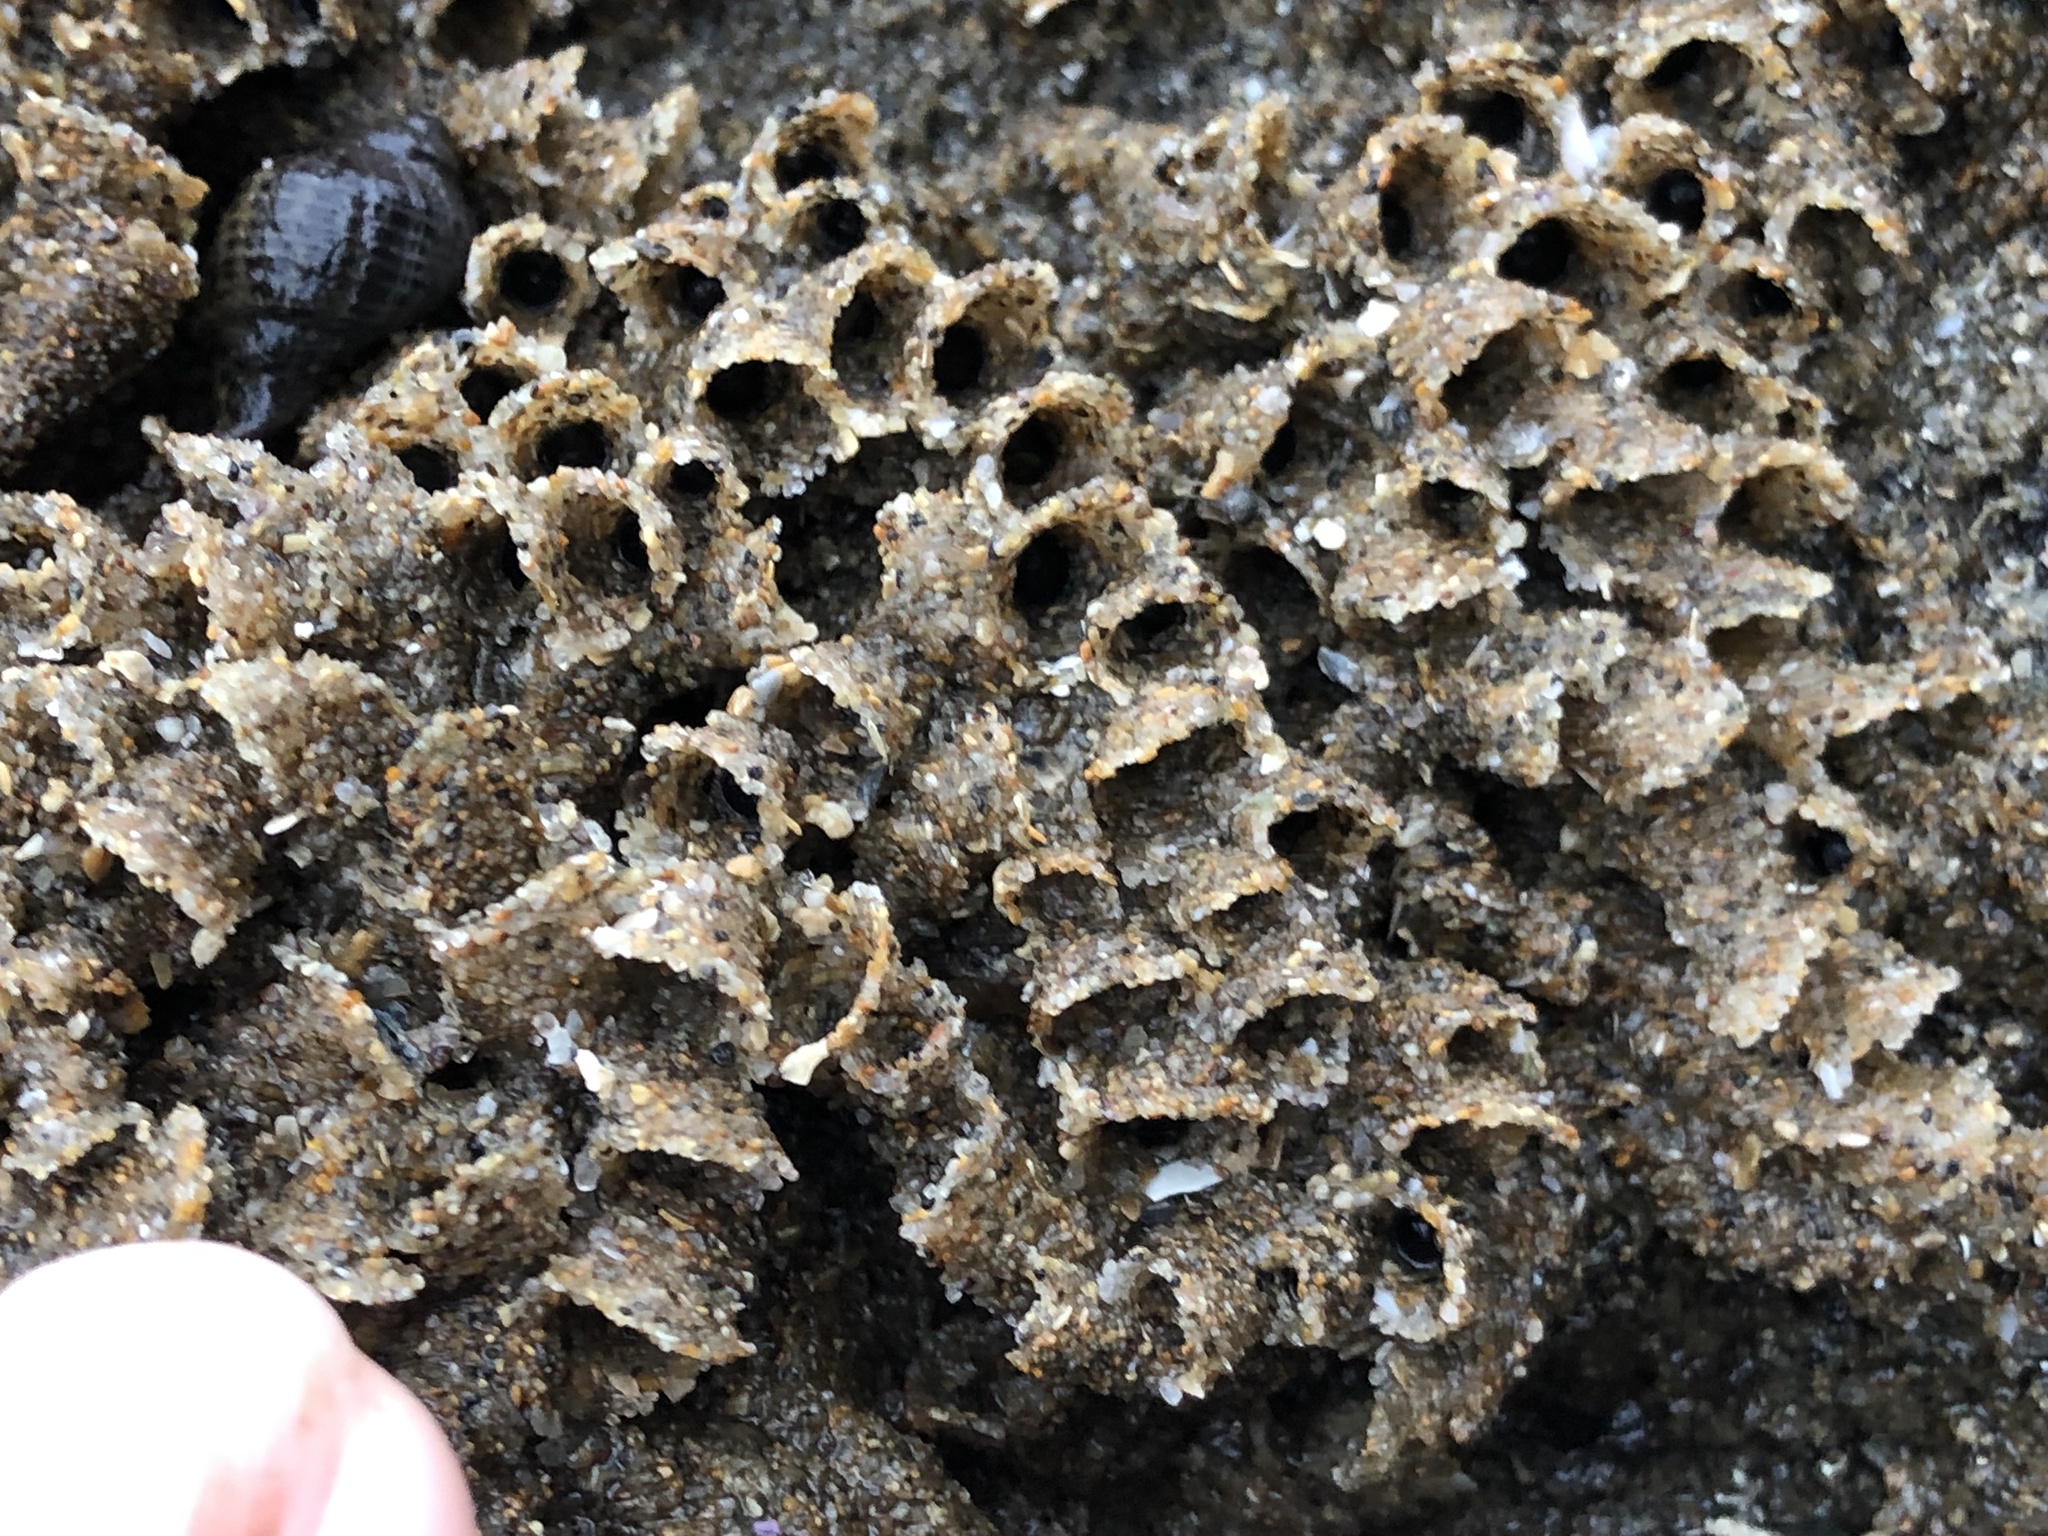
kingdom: Animalia
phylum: Annelida
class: Polychaeta
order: Sabellida
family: Sabellariidae
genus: Phragmatopoma
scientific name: Phragmatopoma californica
